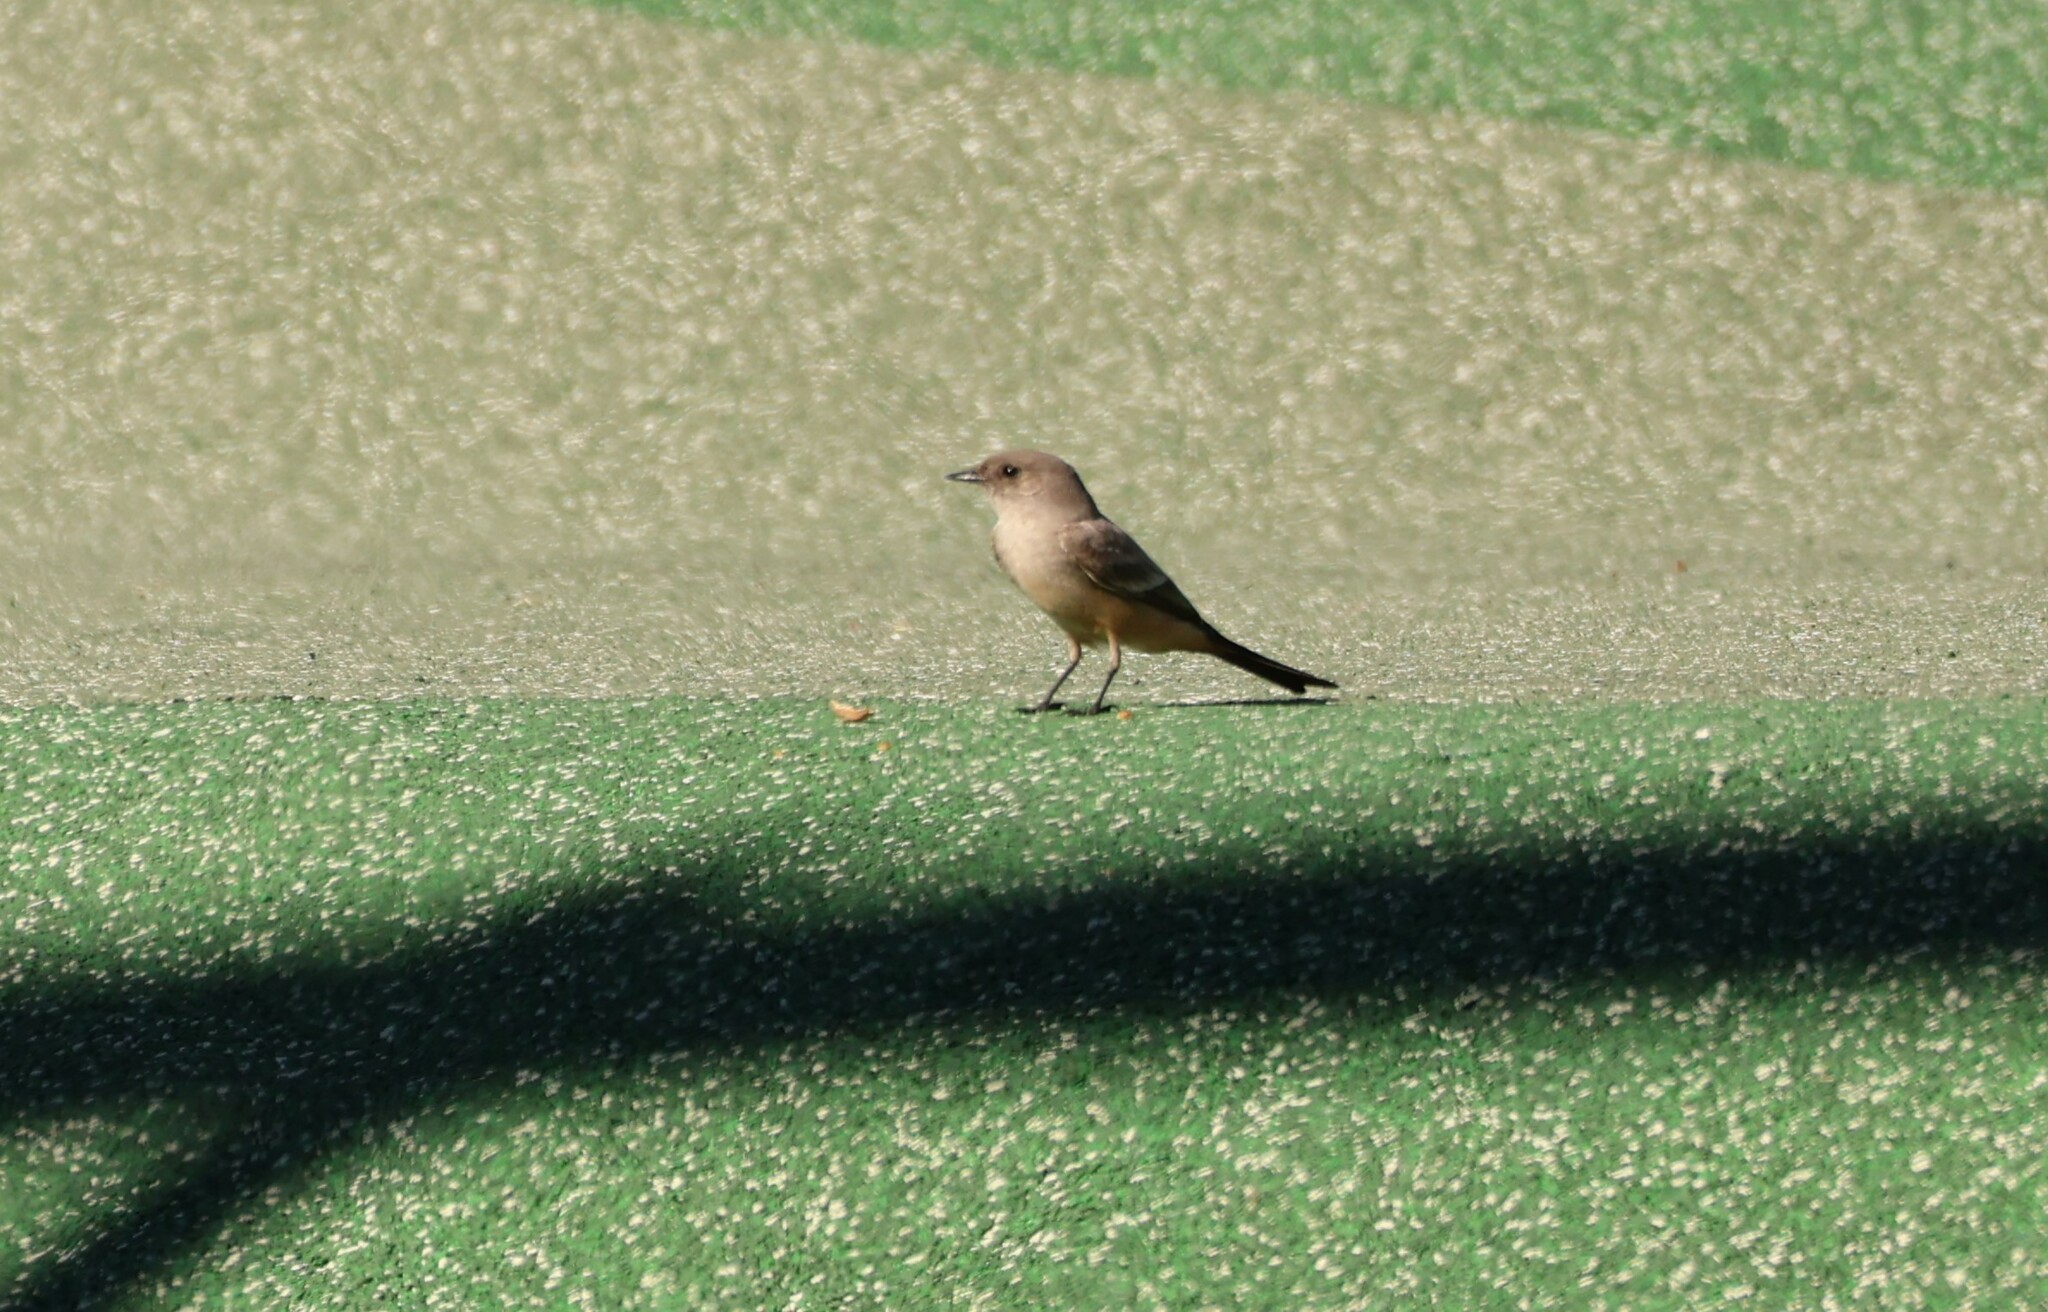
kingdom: Animalia
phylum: Chordata
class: Aves
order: Passeriformes
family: Tyrannidae
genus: Sayornis
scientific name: Sayornis saya
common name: Say's phoebe
